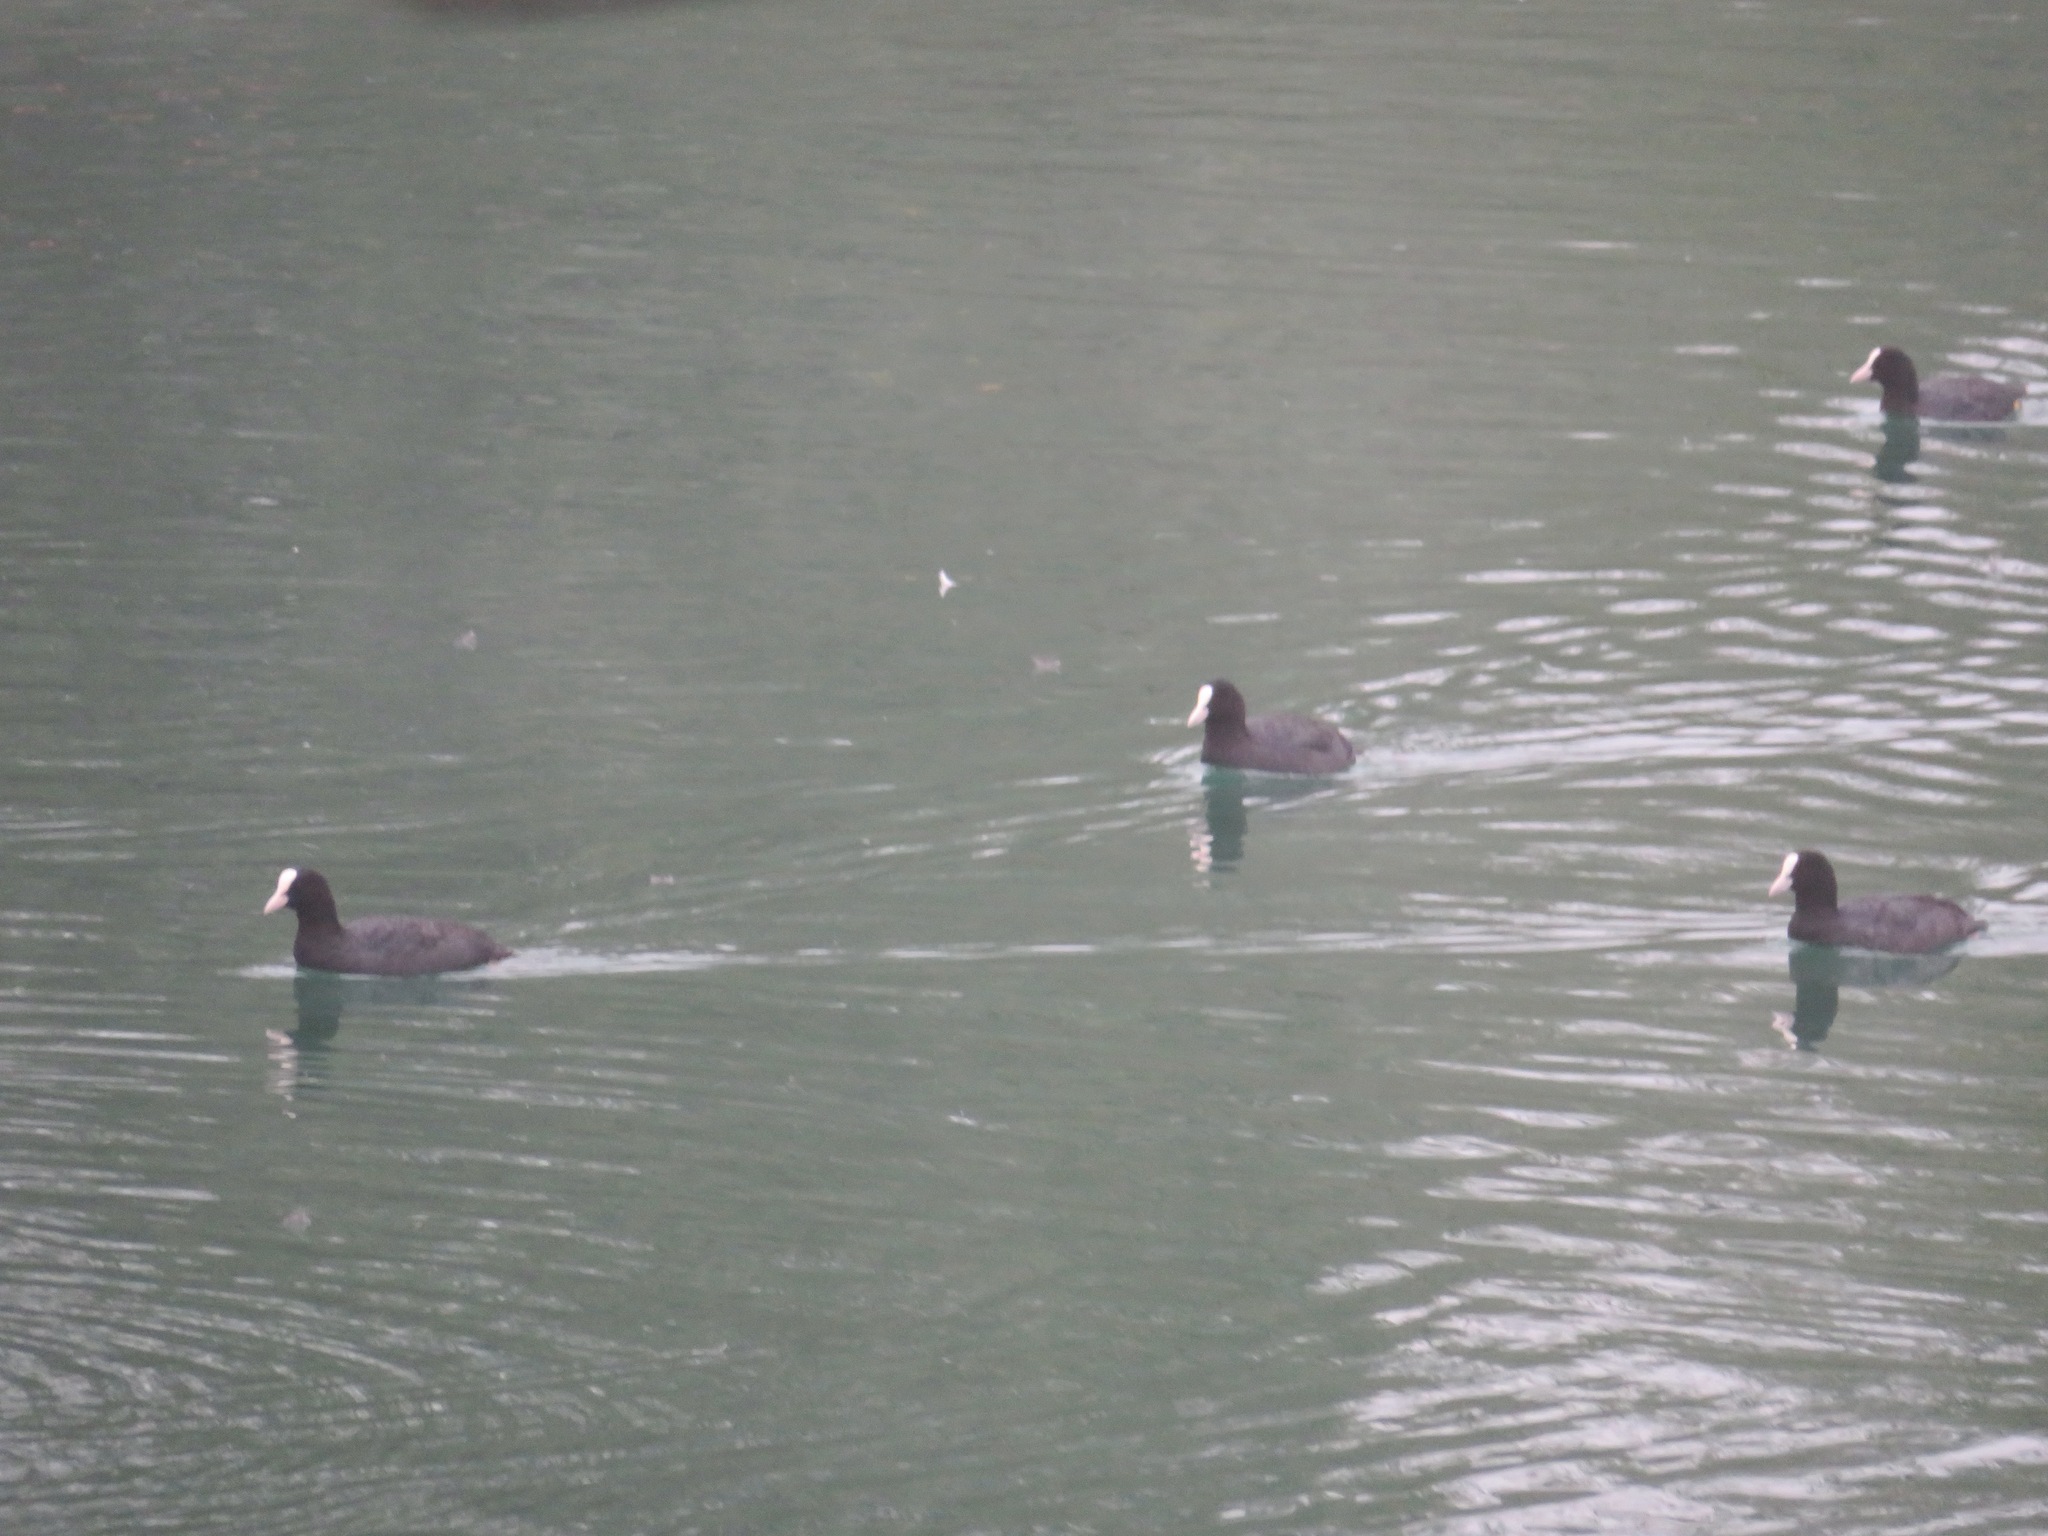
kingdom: Animalia
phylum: Chordata
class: Aves
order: Gruiformes
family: Rallidae
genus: Fulica
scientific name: Fulica atra
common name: Eurasian coot
